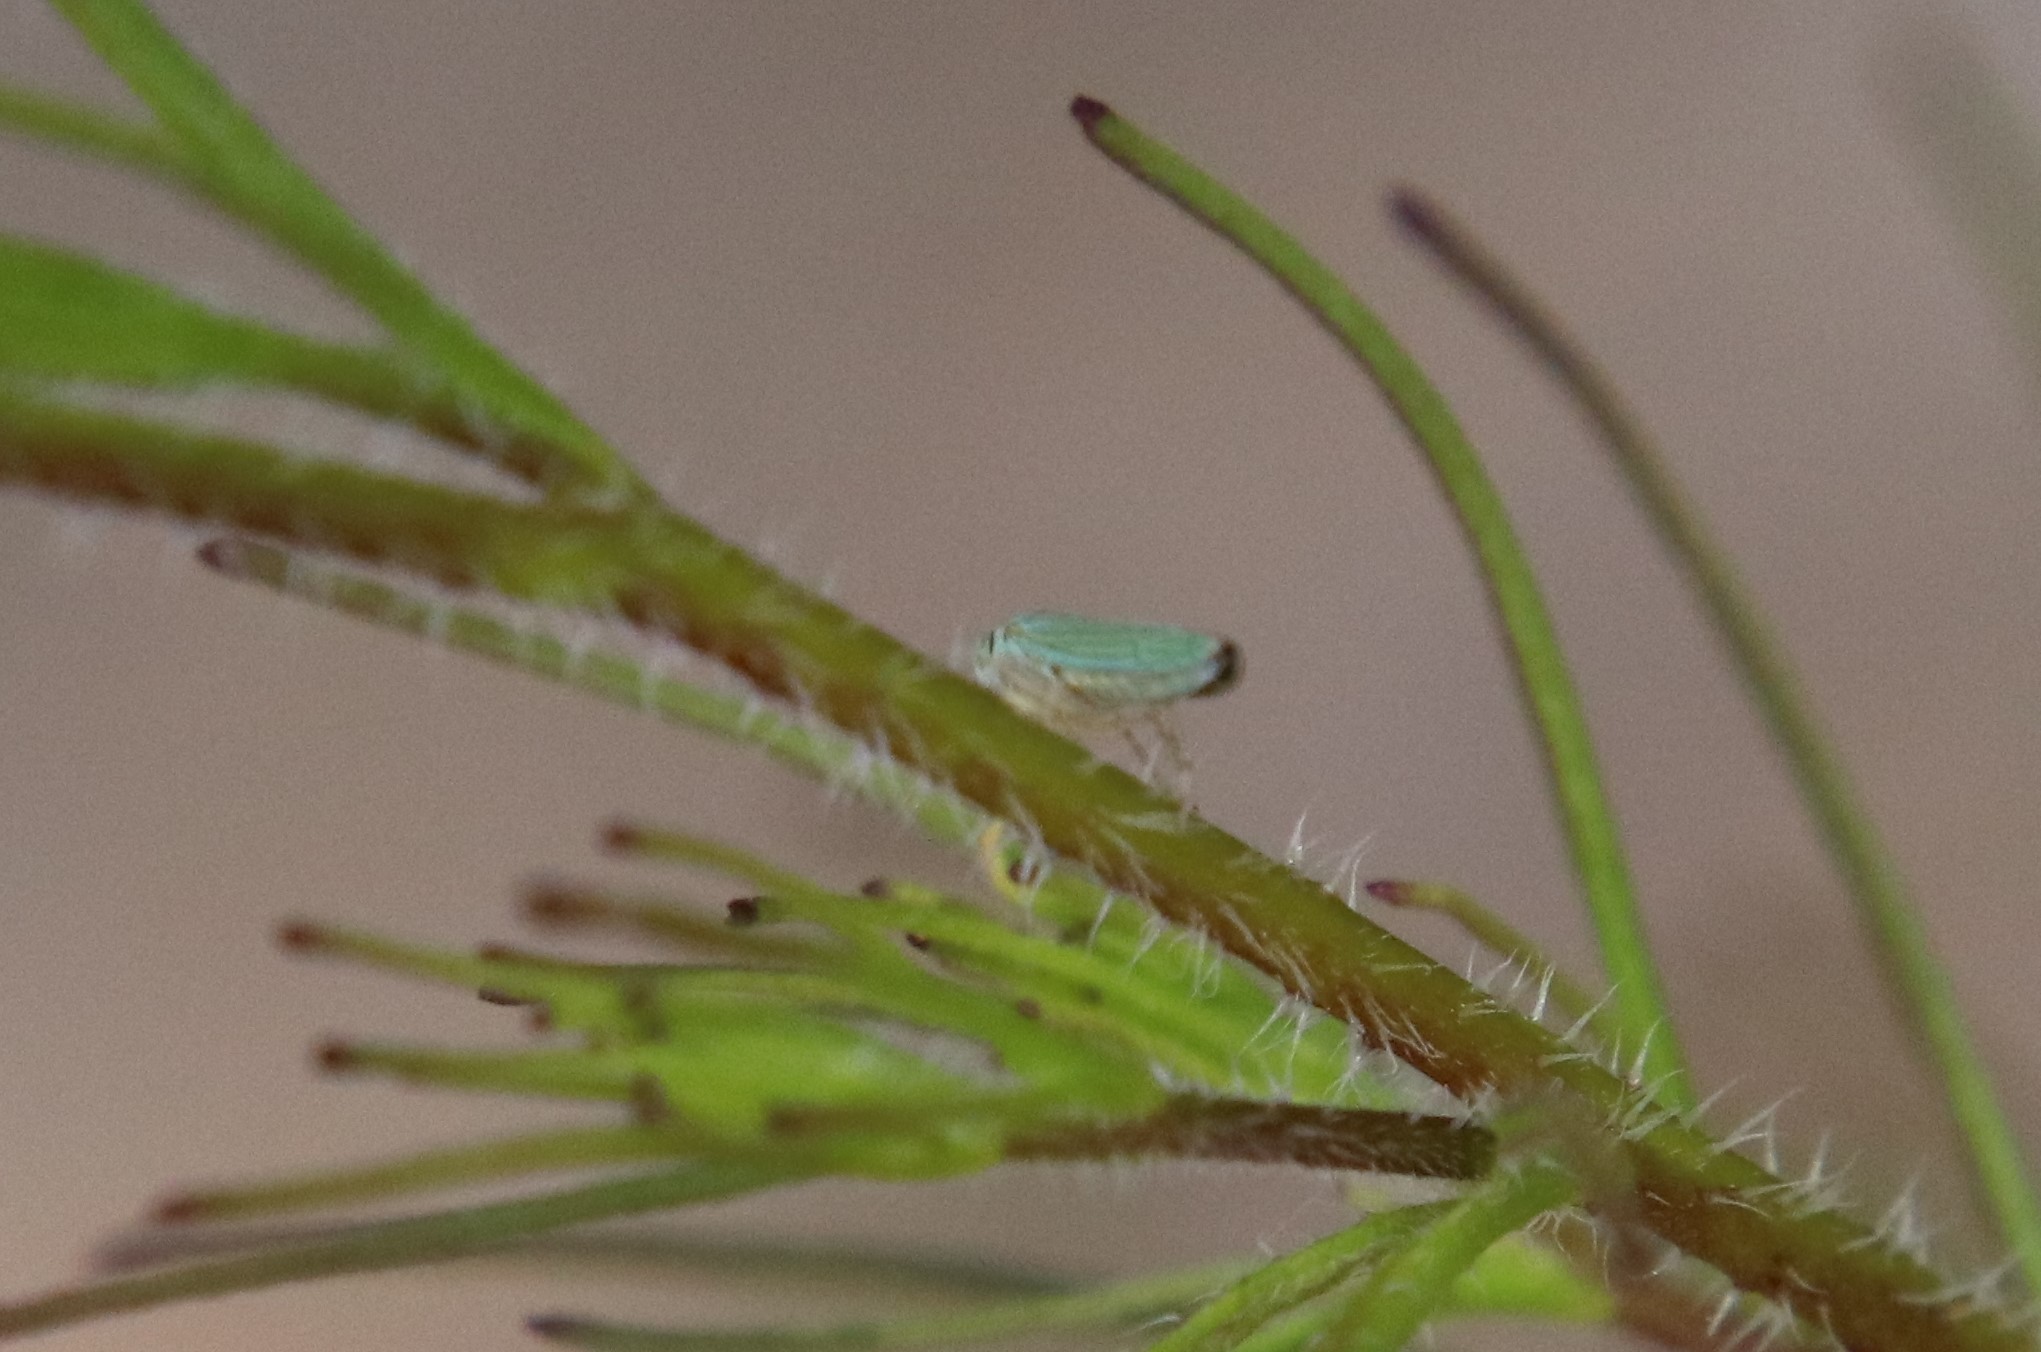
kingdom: Animalia
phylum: Arthropoda
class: Insecta
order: Hemiptera
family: Cicadellidae
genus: Graphocephala
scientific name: Graphocephala atropunctata
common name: Blue-green sharpshooter
